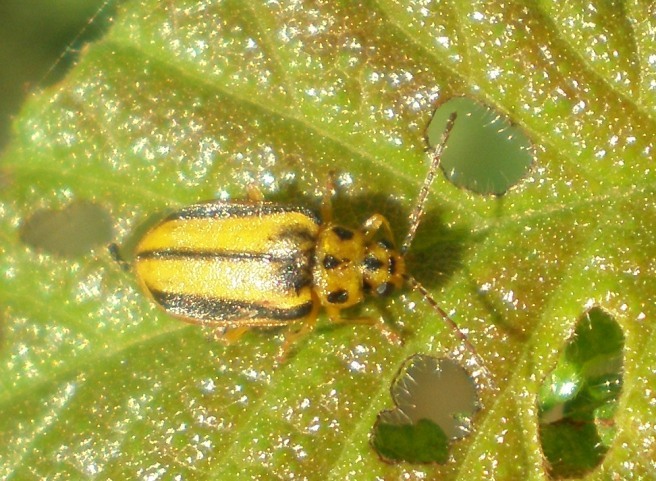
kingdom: Animalia
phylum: Arthropoda
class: Insecta
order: Coleoptera
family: Chrysomelidae
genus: Xanthogaleruca
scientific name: Xanthogaleruca luteola
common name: Elm leaf beetle
